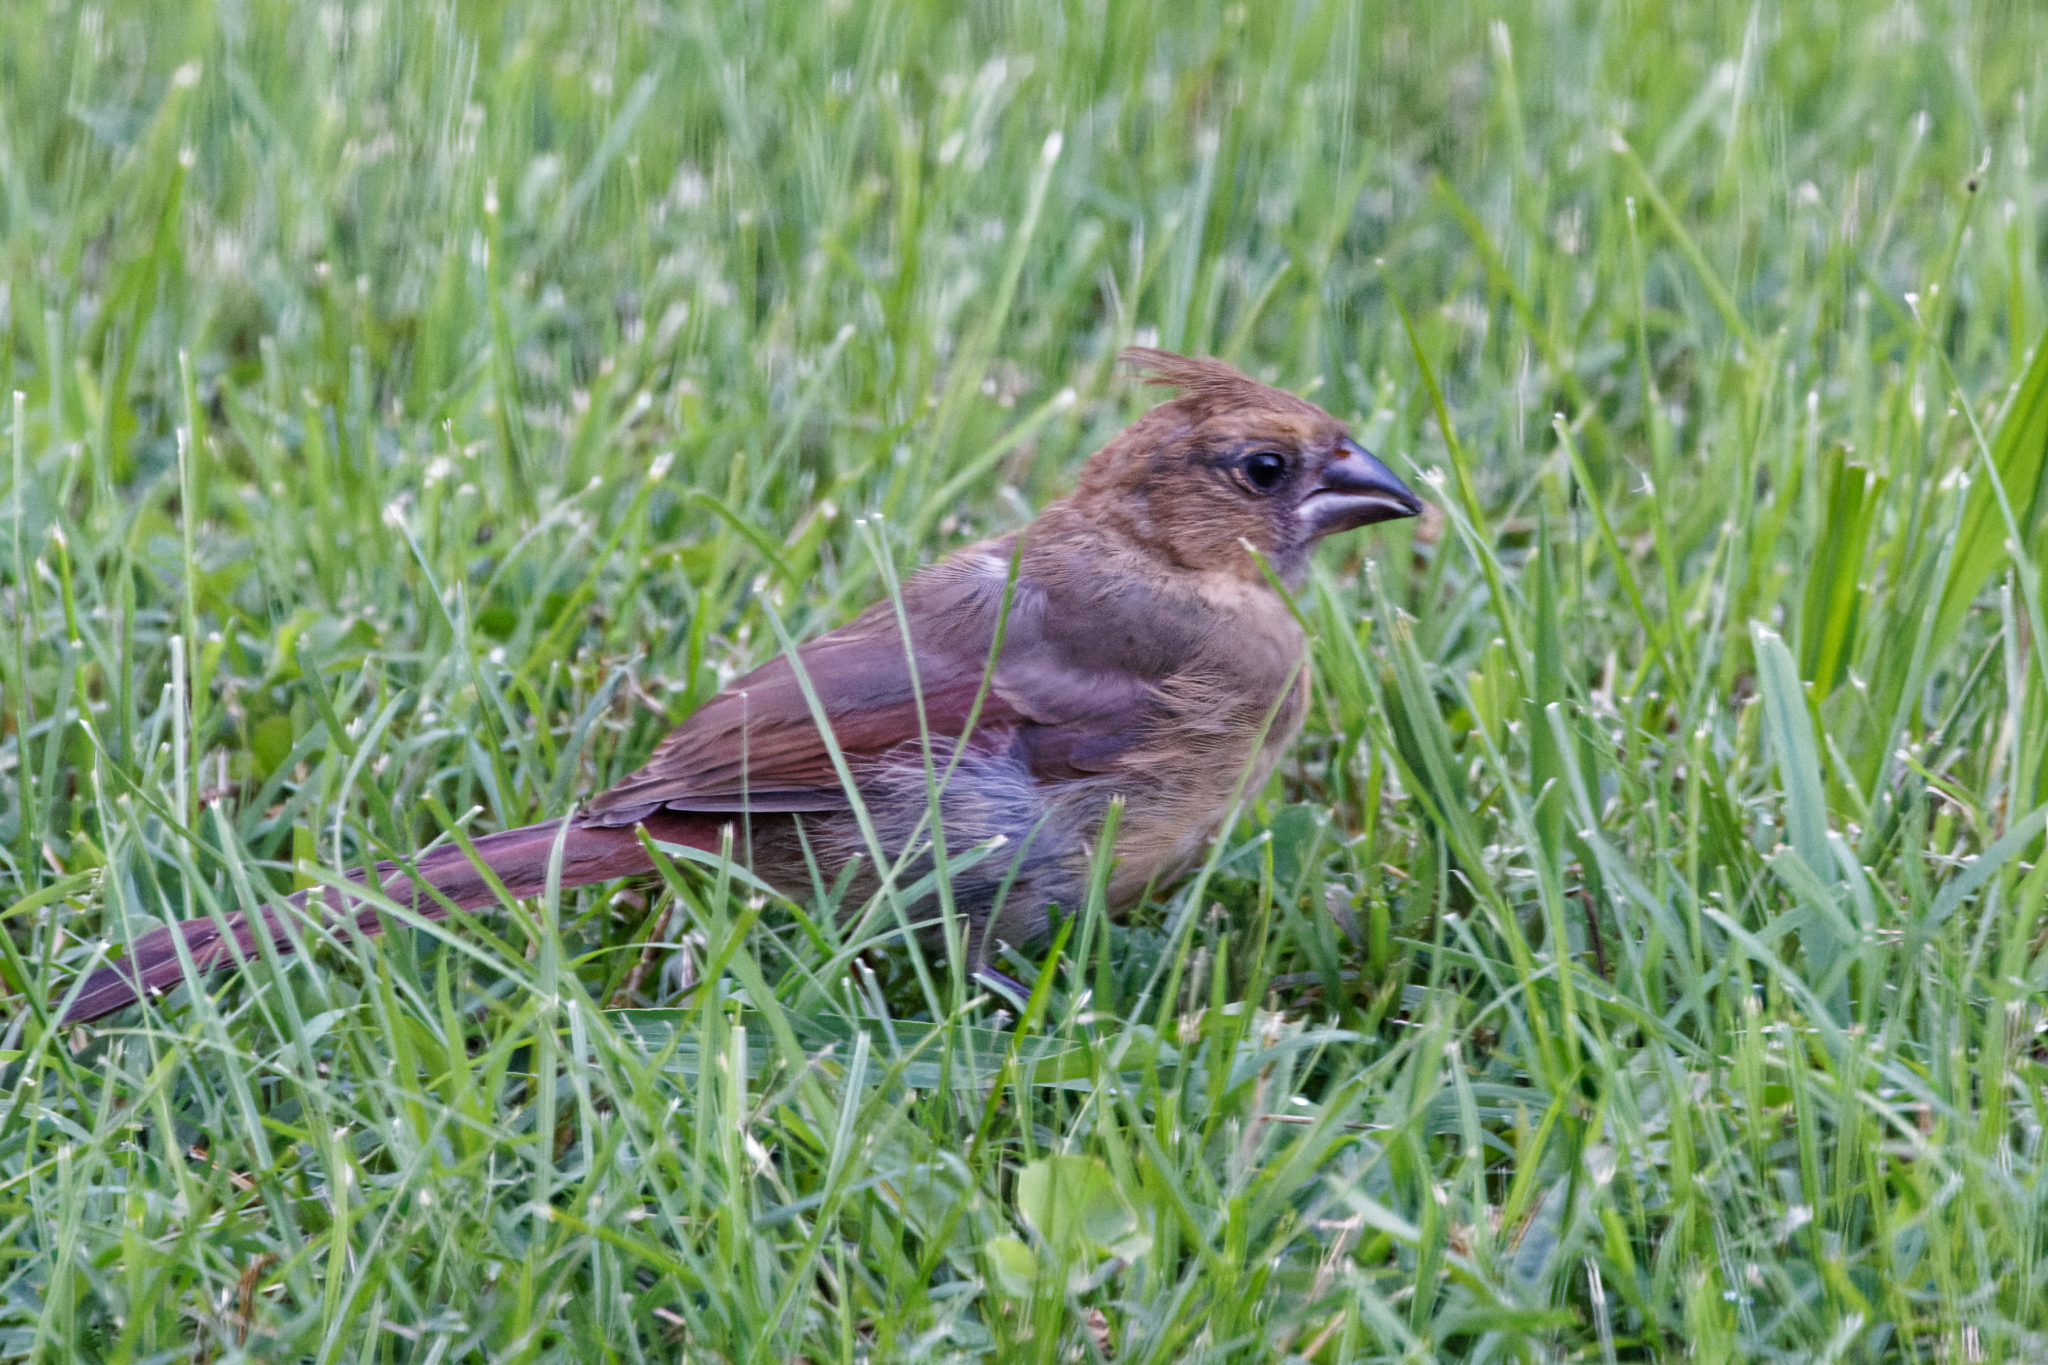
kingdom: Animalia
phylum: Chordata
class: Aves
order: Passeriformes
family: Cardinalidae
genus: Cardinalis
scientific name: Cardinalis cardinalis
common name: Northern cardinal
